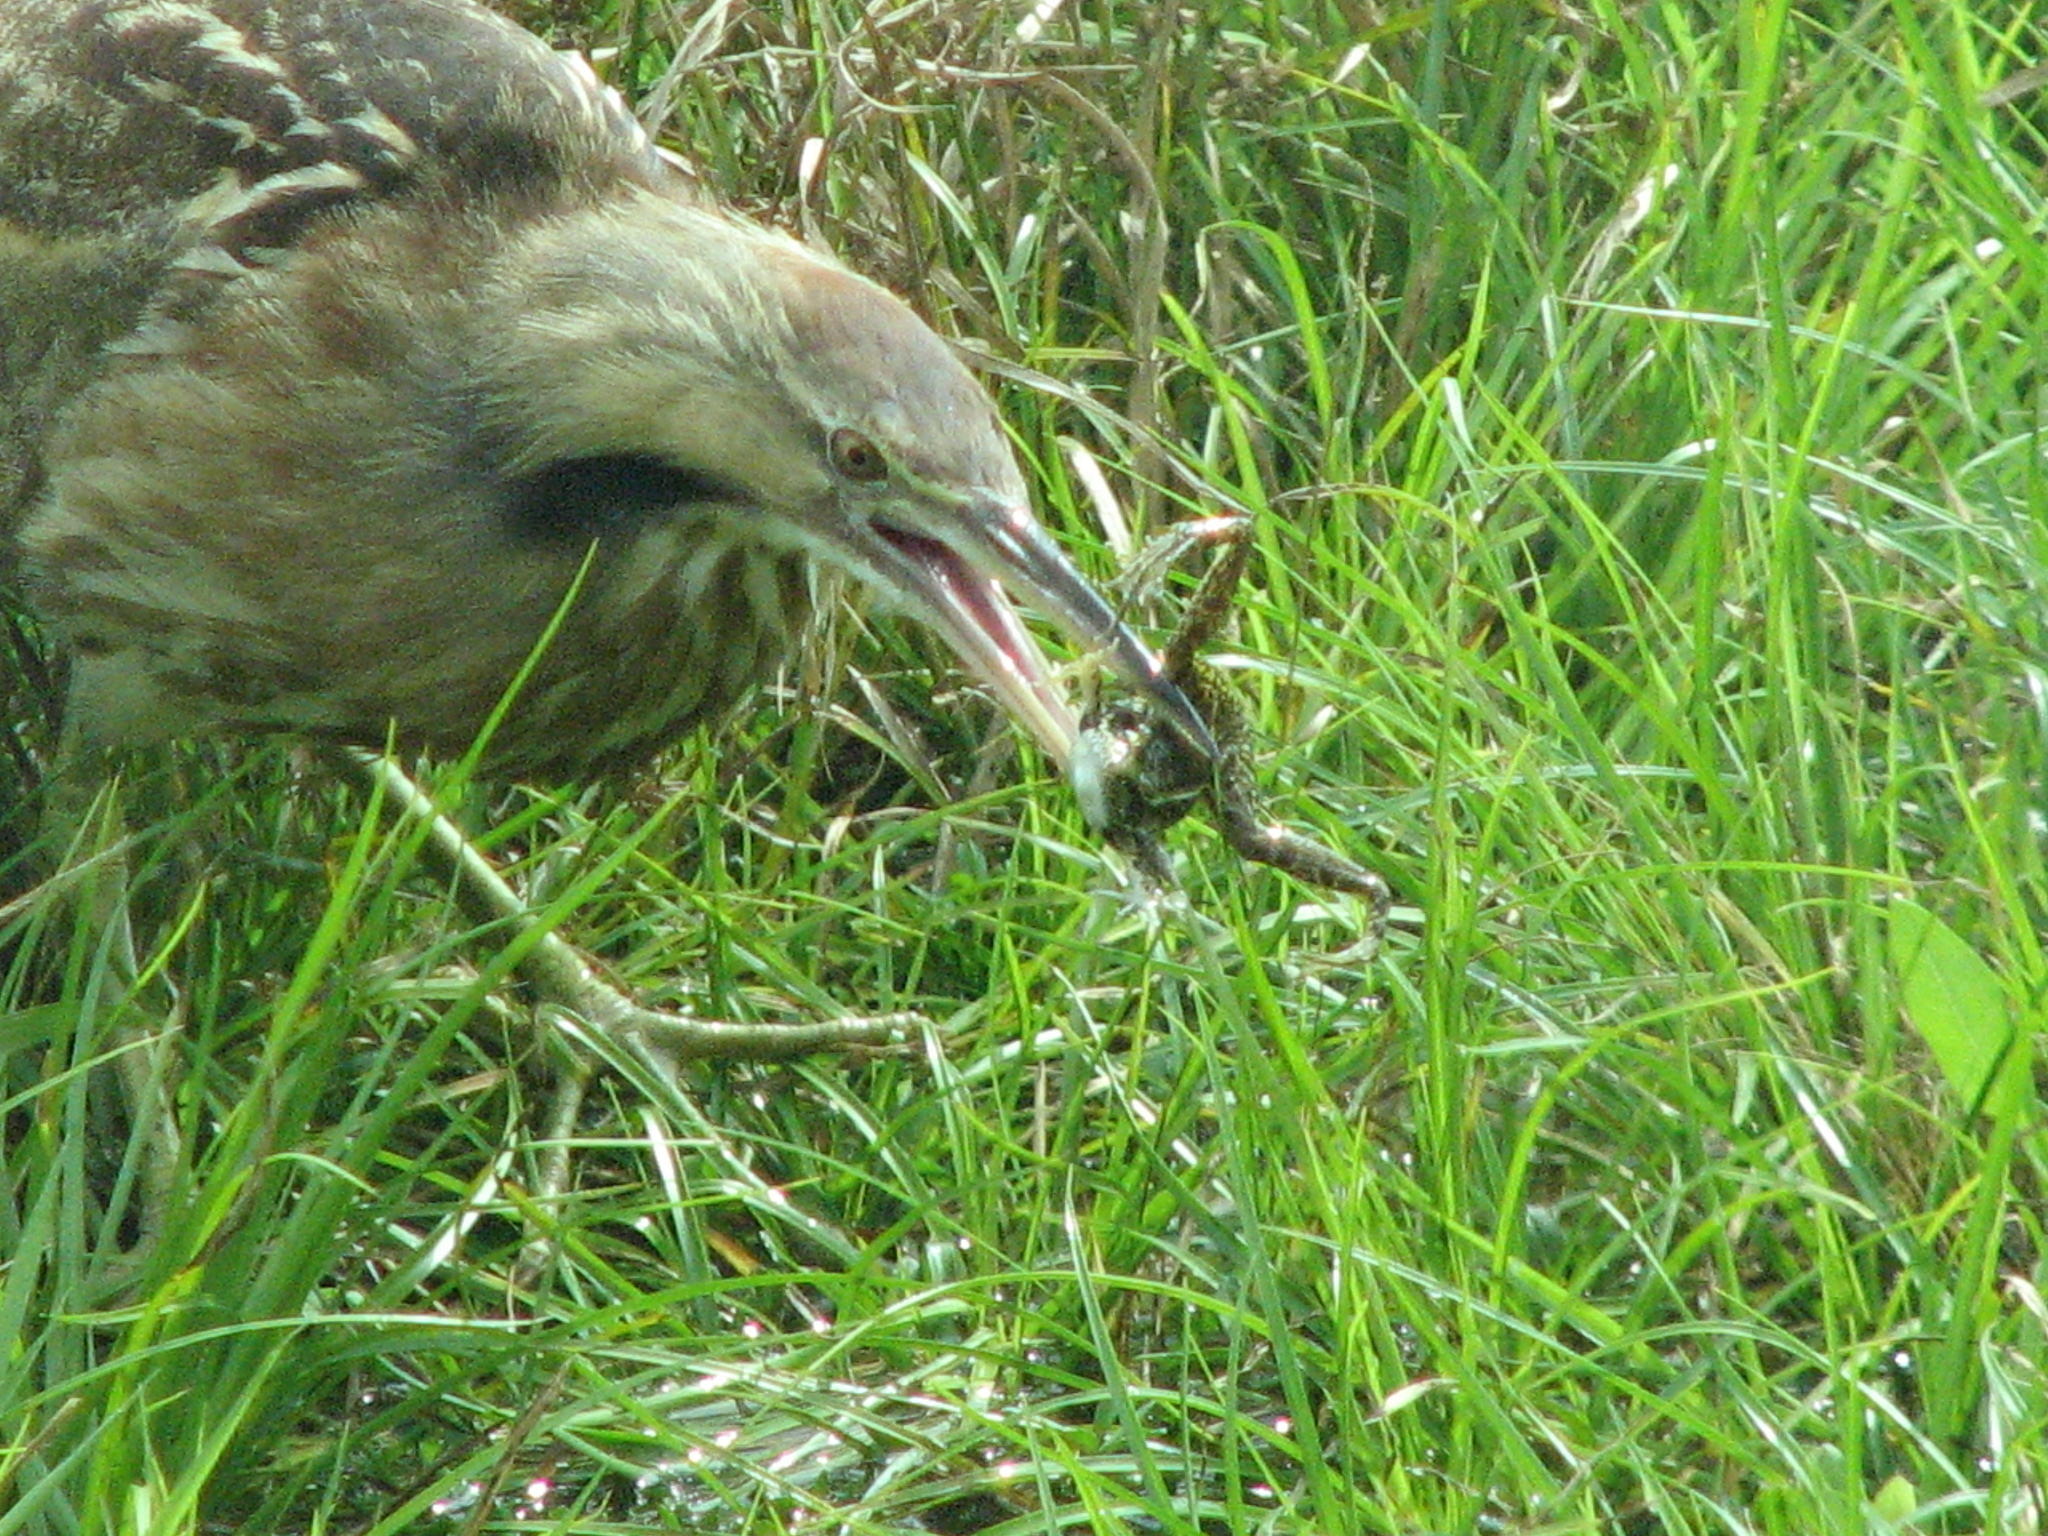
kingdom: Animalia
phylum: Chordata
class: Aves
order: Pelecaniformes
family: Ardeidae
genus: Botaurus
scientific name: Botaurus lentiginosus
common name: American bittern
